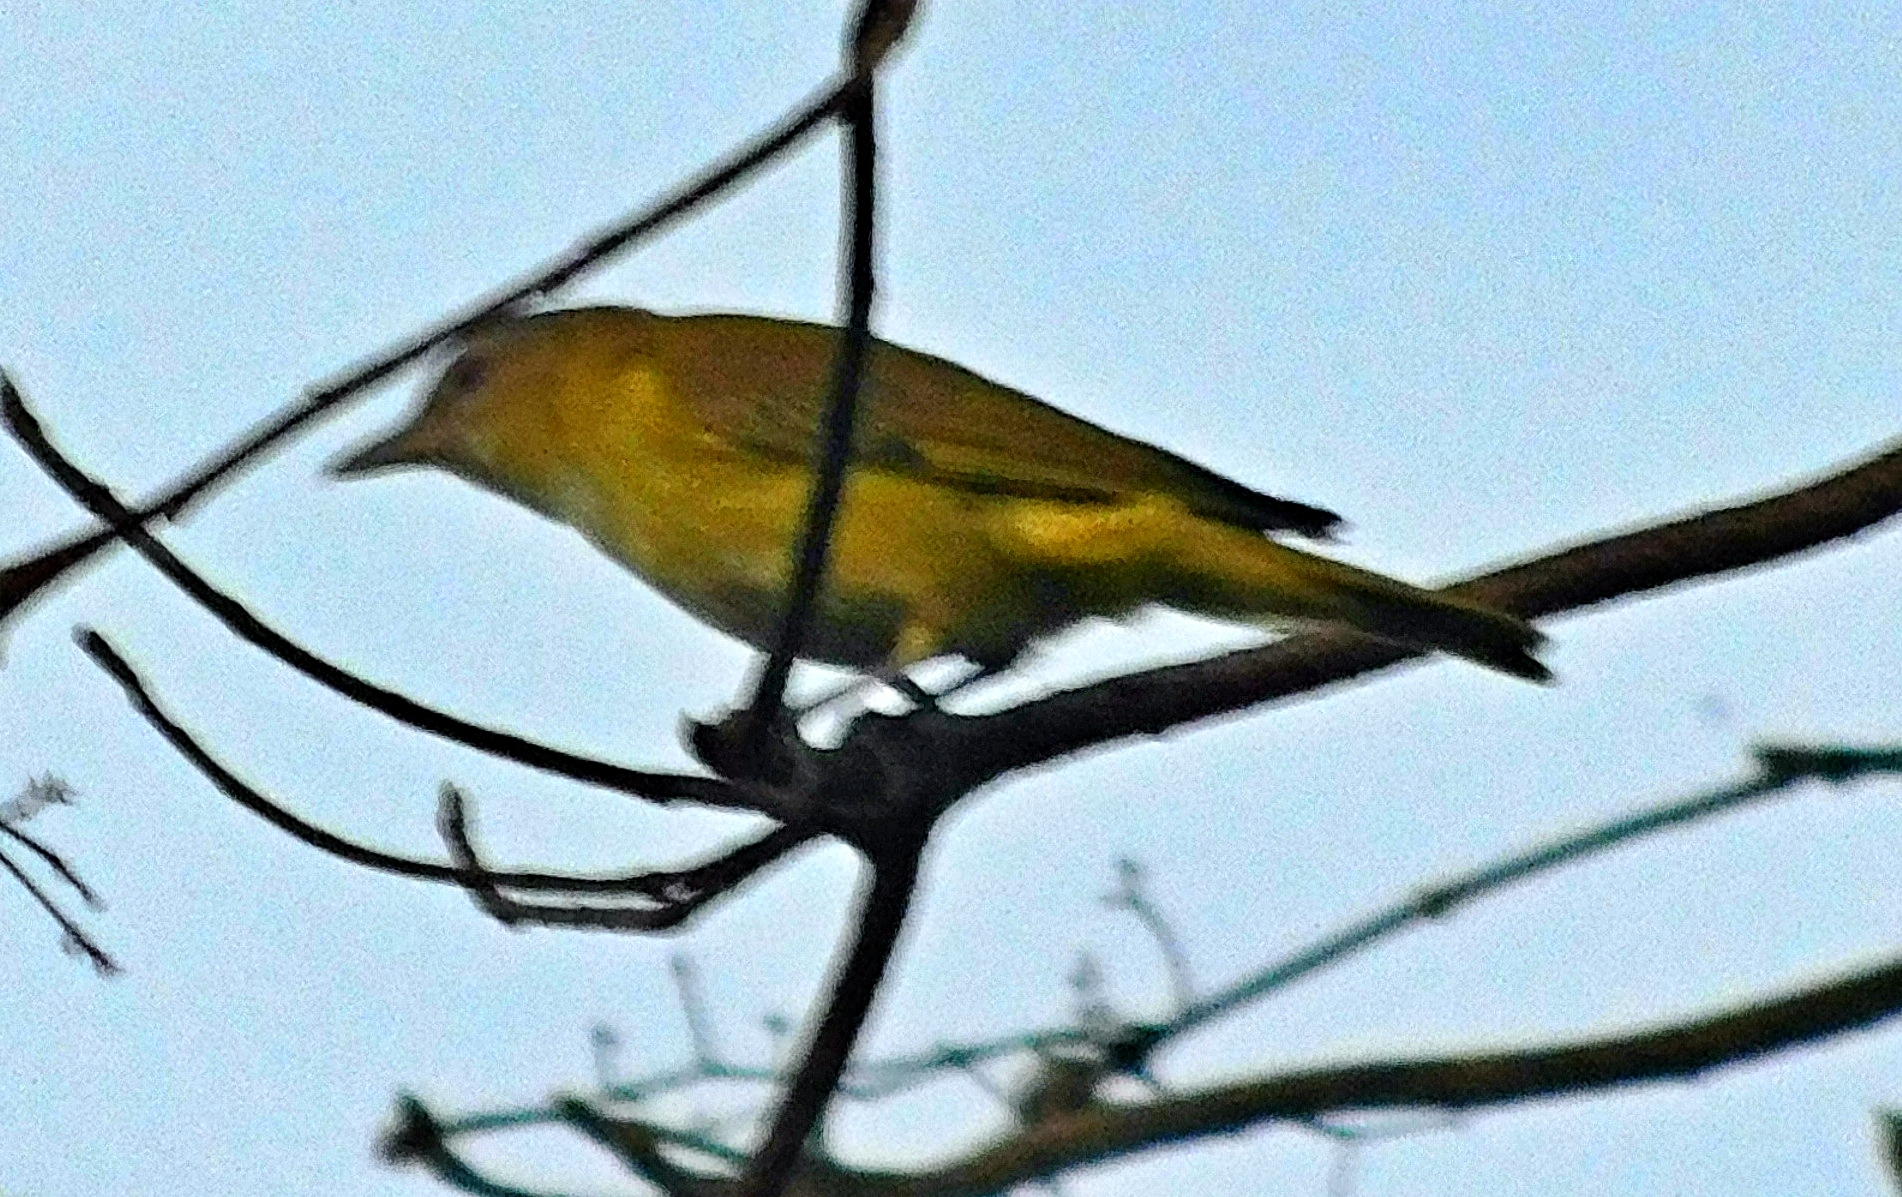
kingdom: Animalia
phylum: Chordata
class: Aves
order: Passeriformes
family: Vireonidae
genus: Vireo
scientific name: Vireo flavoviridis
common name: Yellow-green vireo
